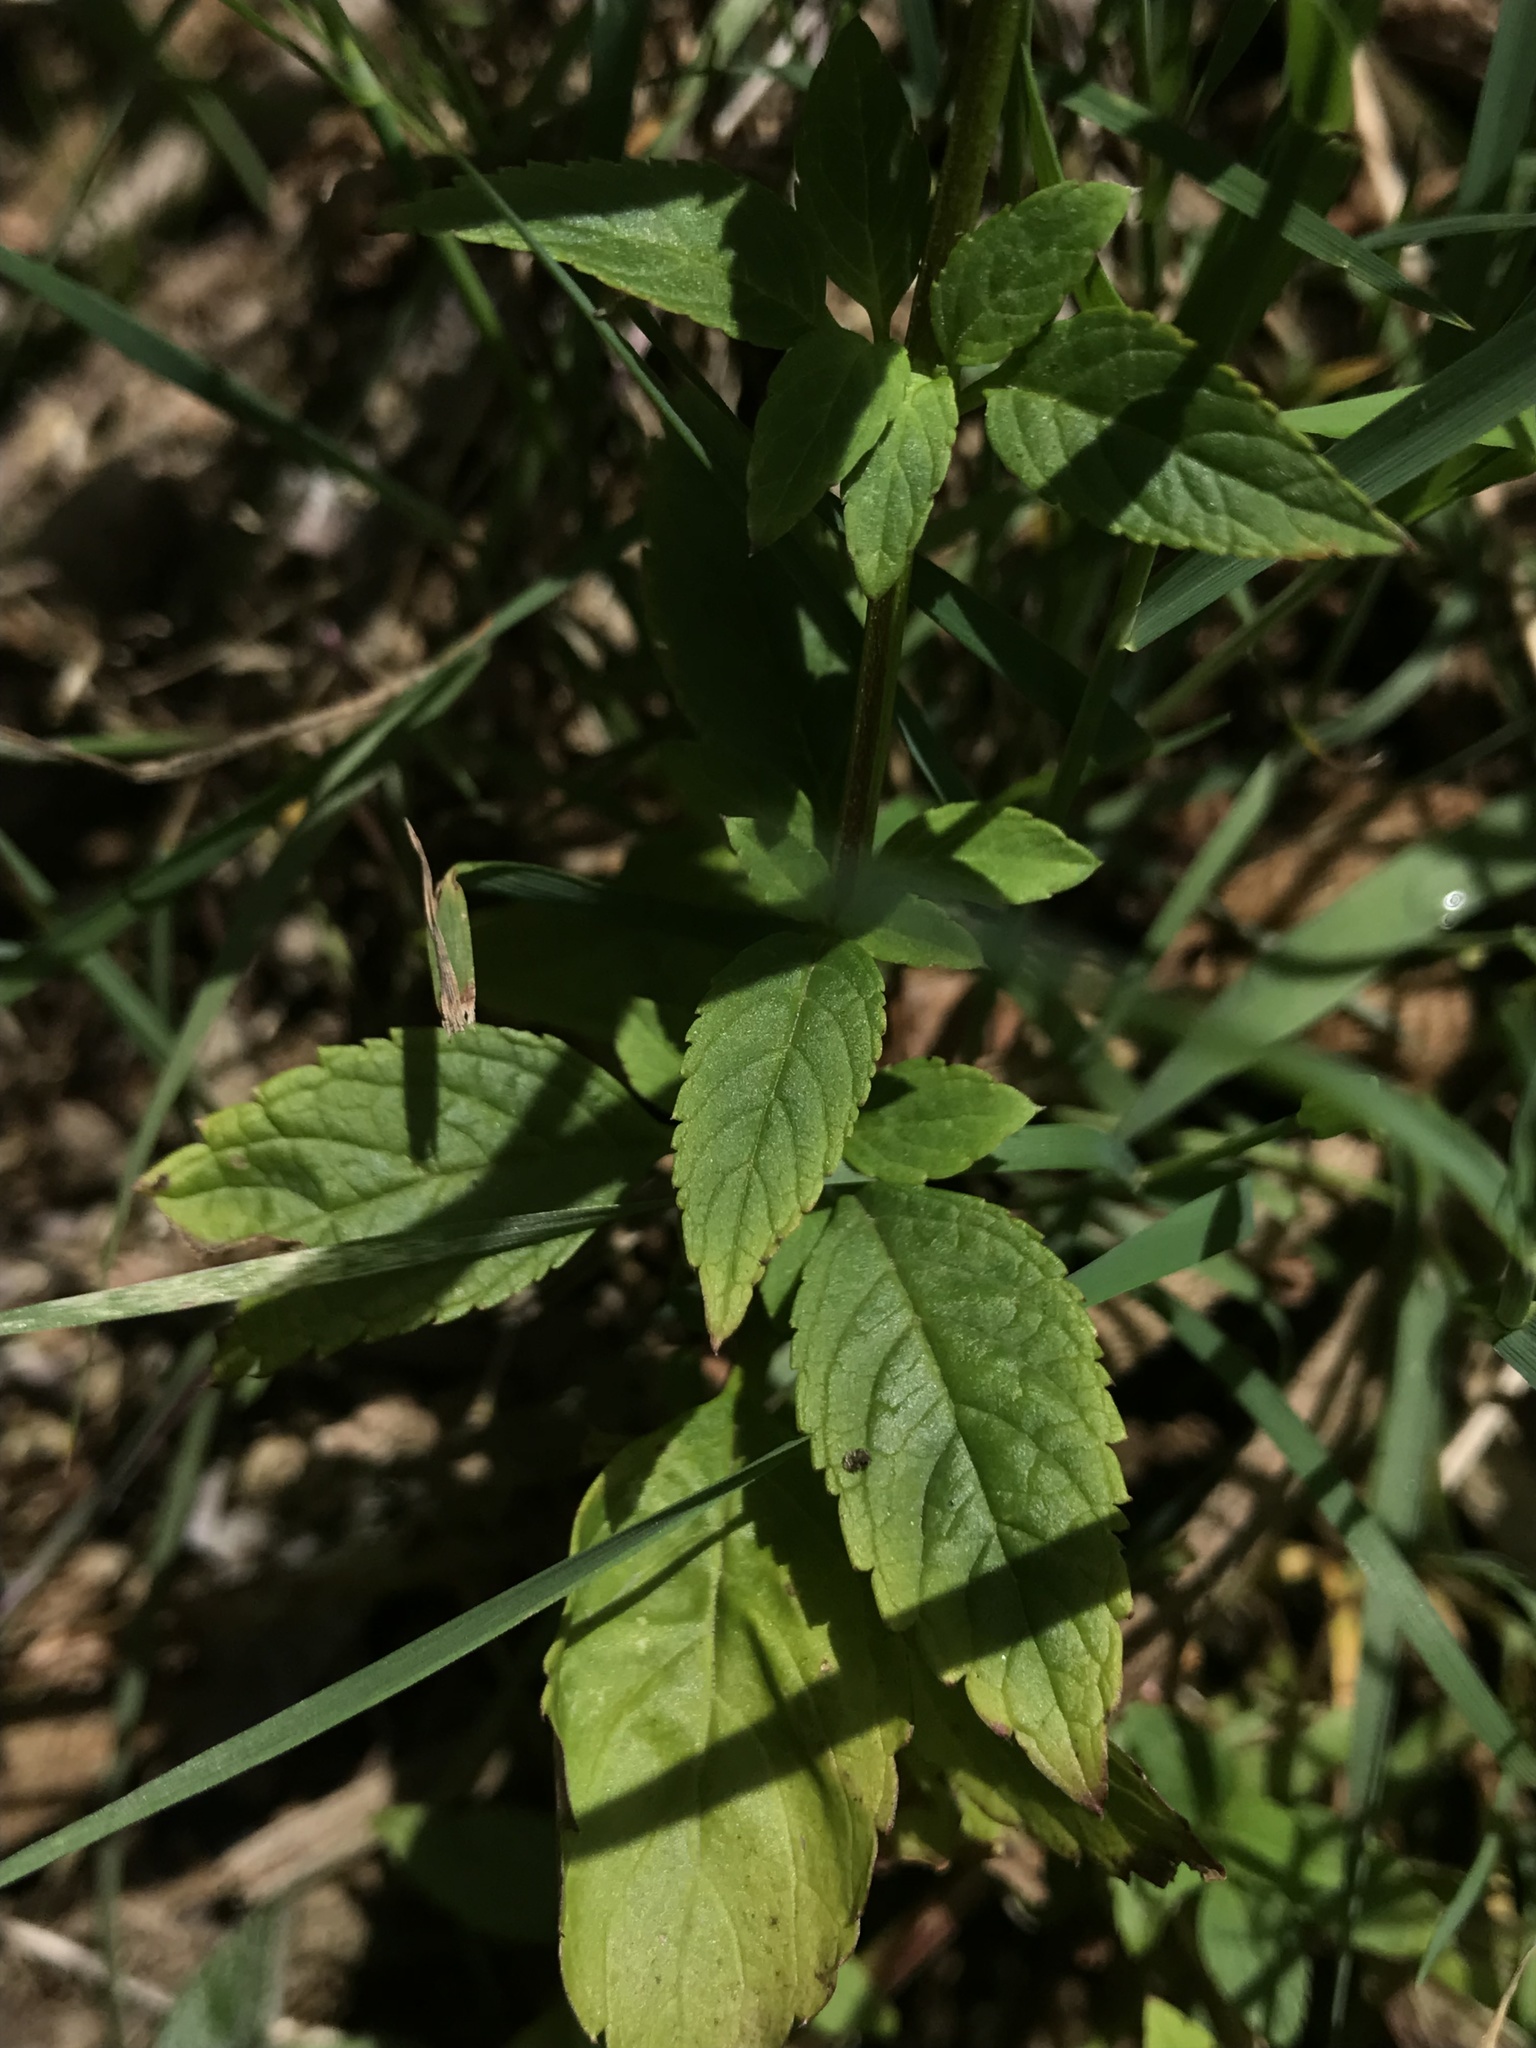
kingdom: Plantae
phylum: Tracheophyta
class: Magnoliopsida
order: Lamiales
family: Scrophulariaceae
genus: Alonsoa
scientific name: Alonsoa meridionalis
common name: Maskflower
